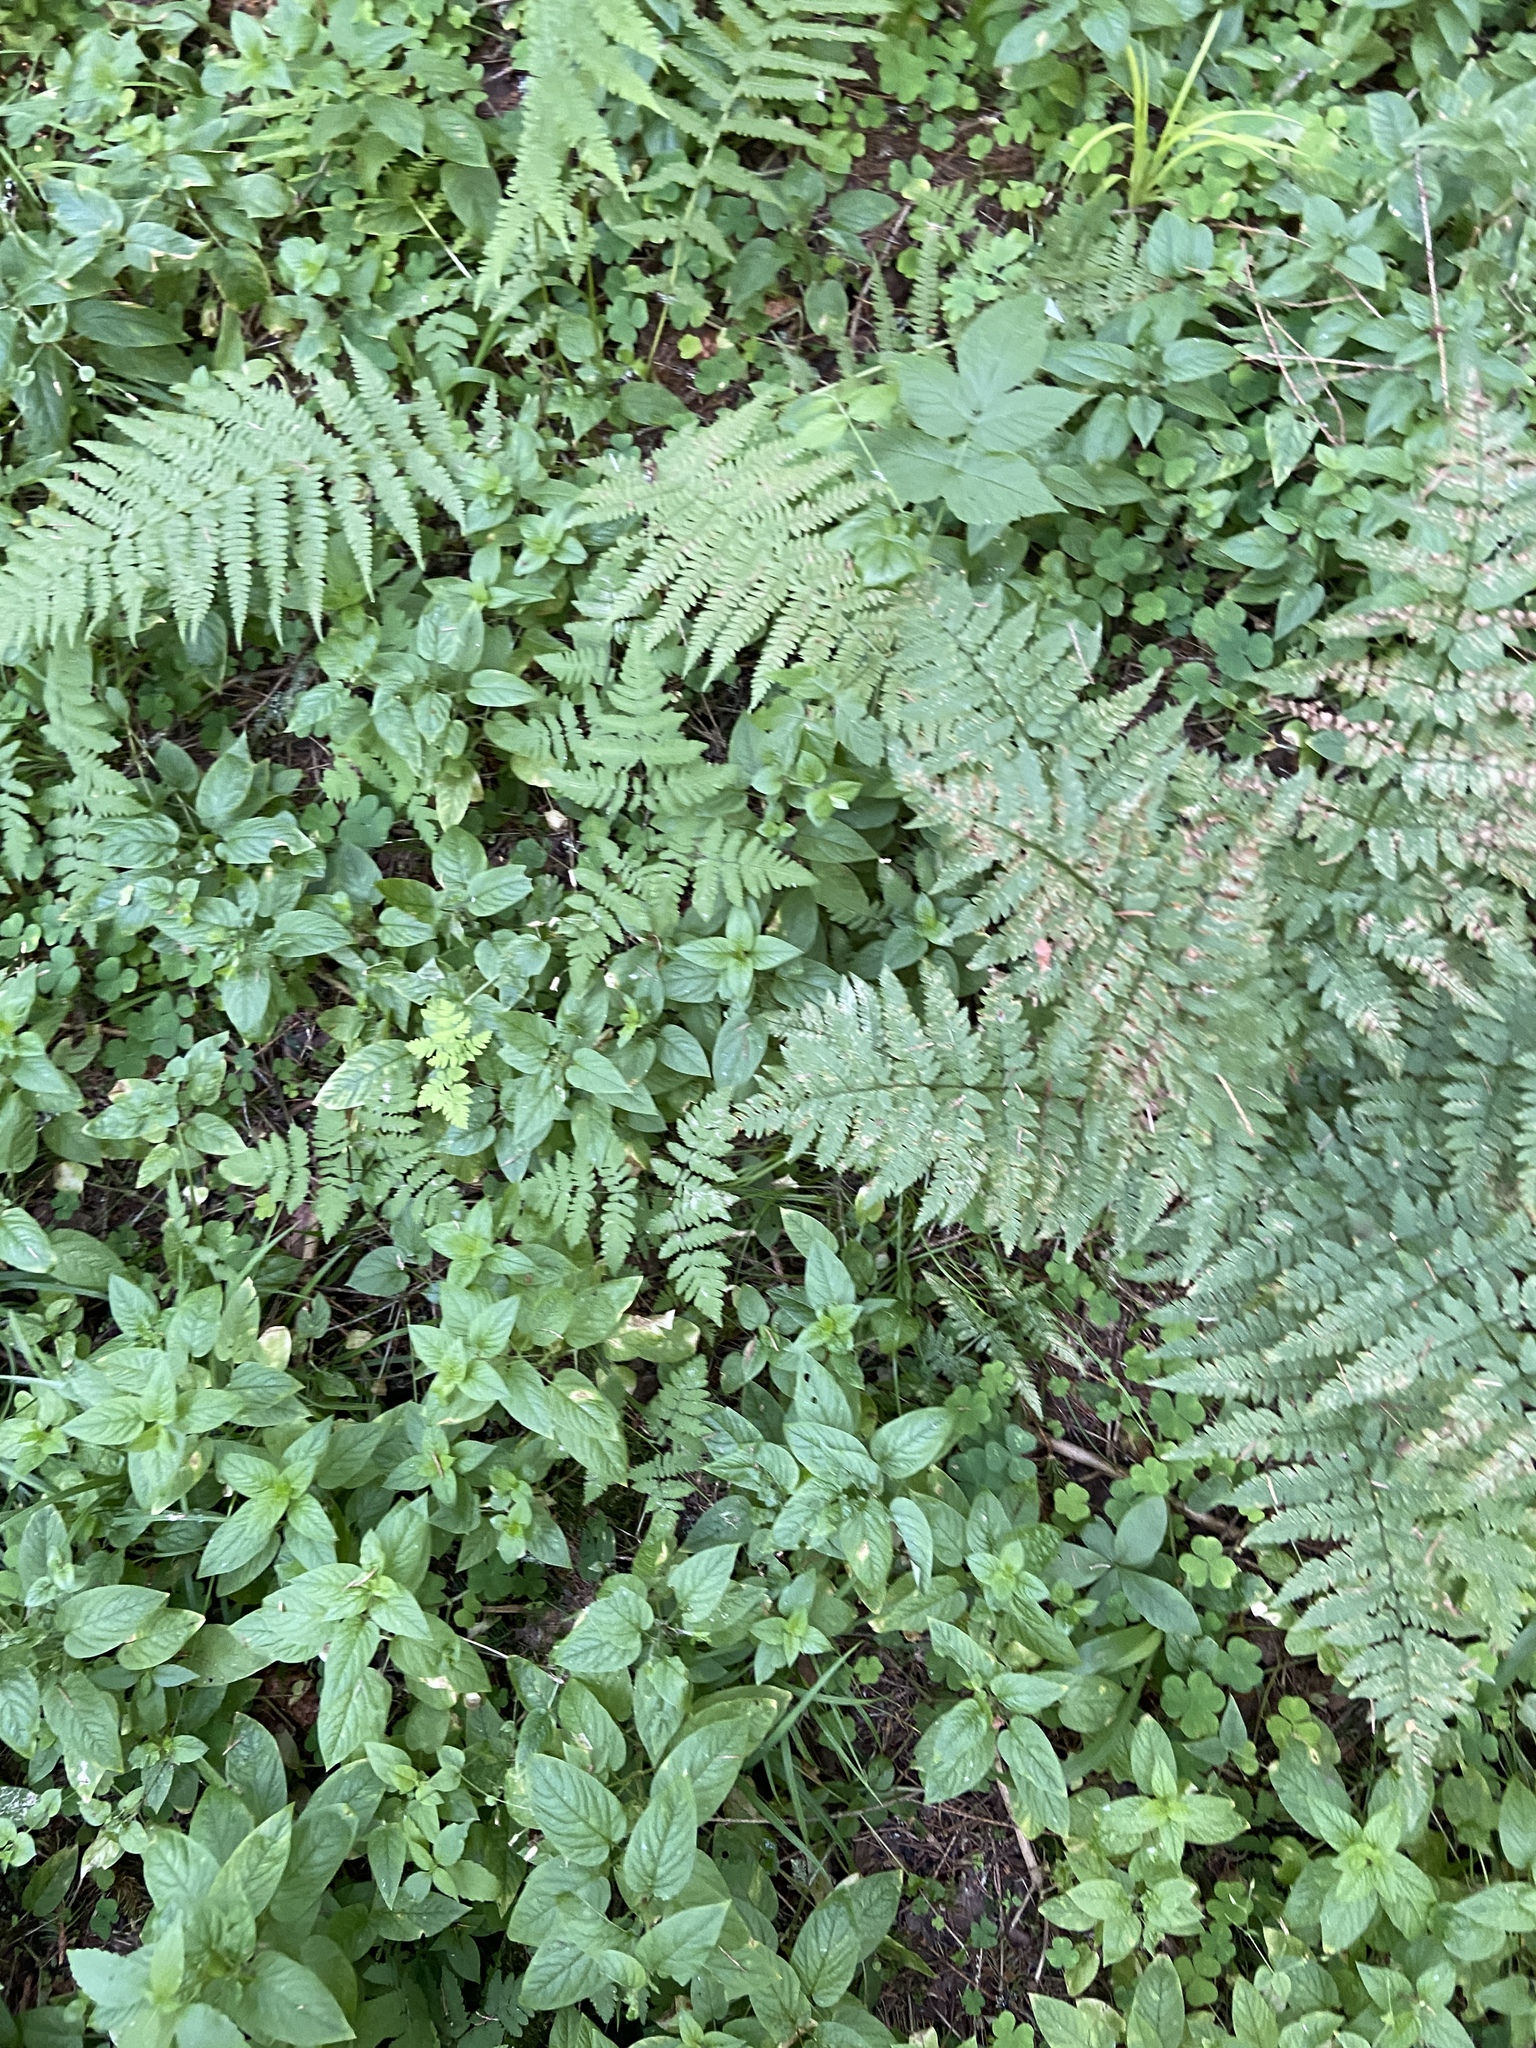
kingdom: Plantae
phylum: Tracheophyta
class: Polypodiopsida
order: Polypodiales
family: Dryopteridaceae
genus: Dryopteris
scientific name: Dryopteris carthusiana
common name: Narrow buckler-fern
